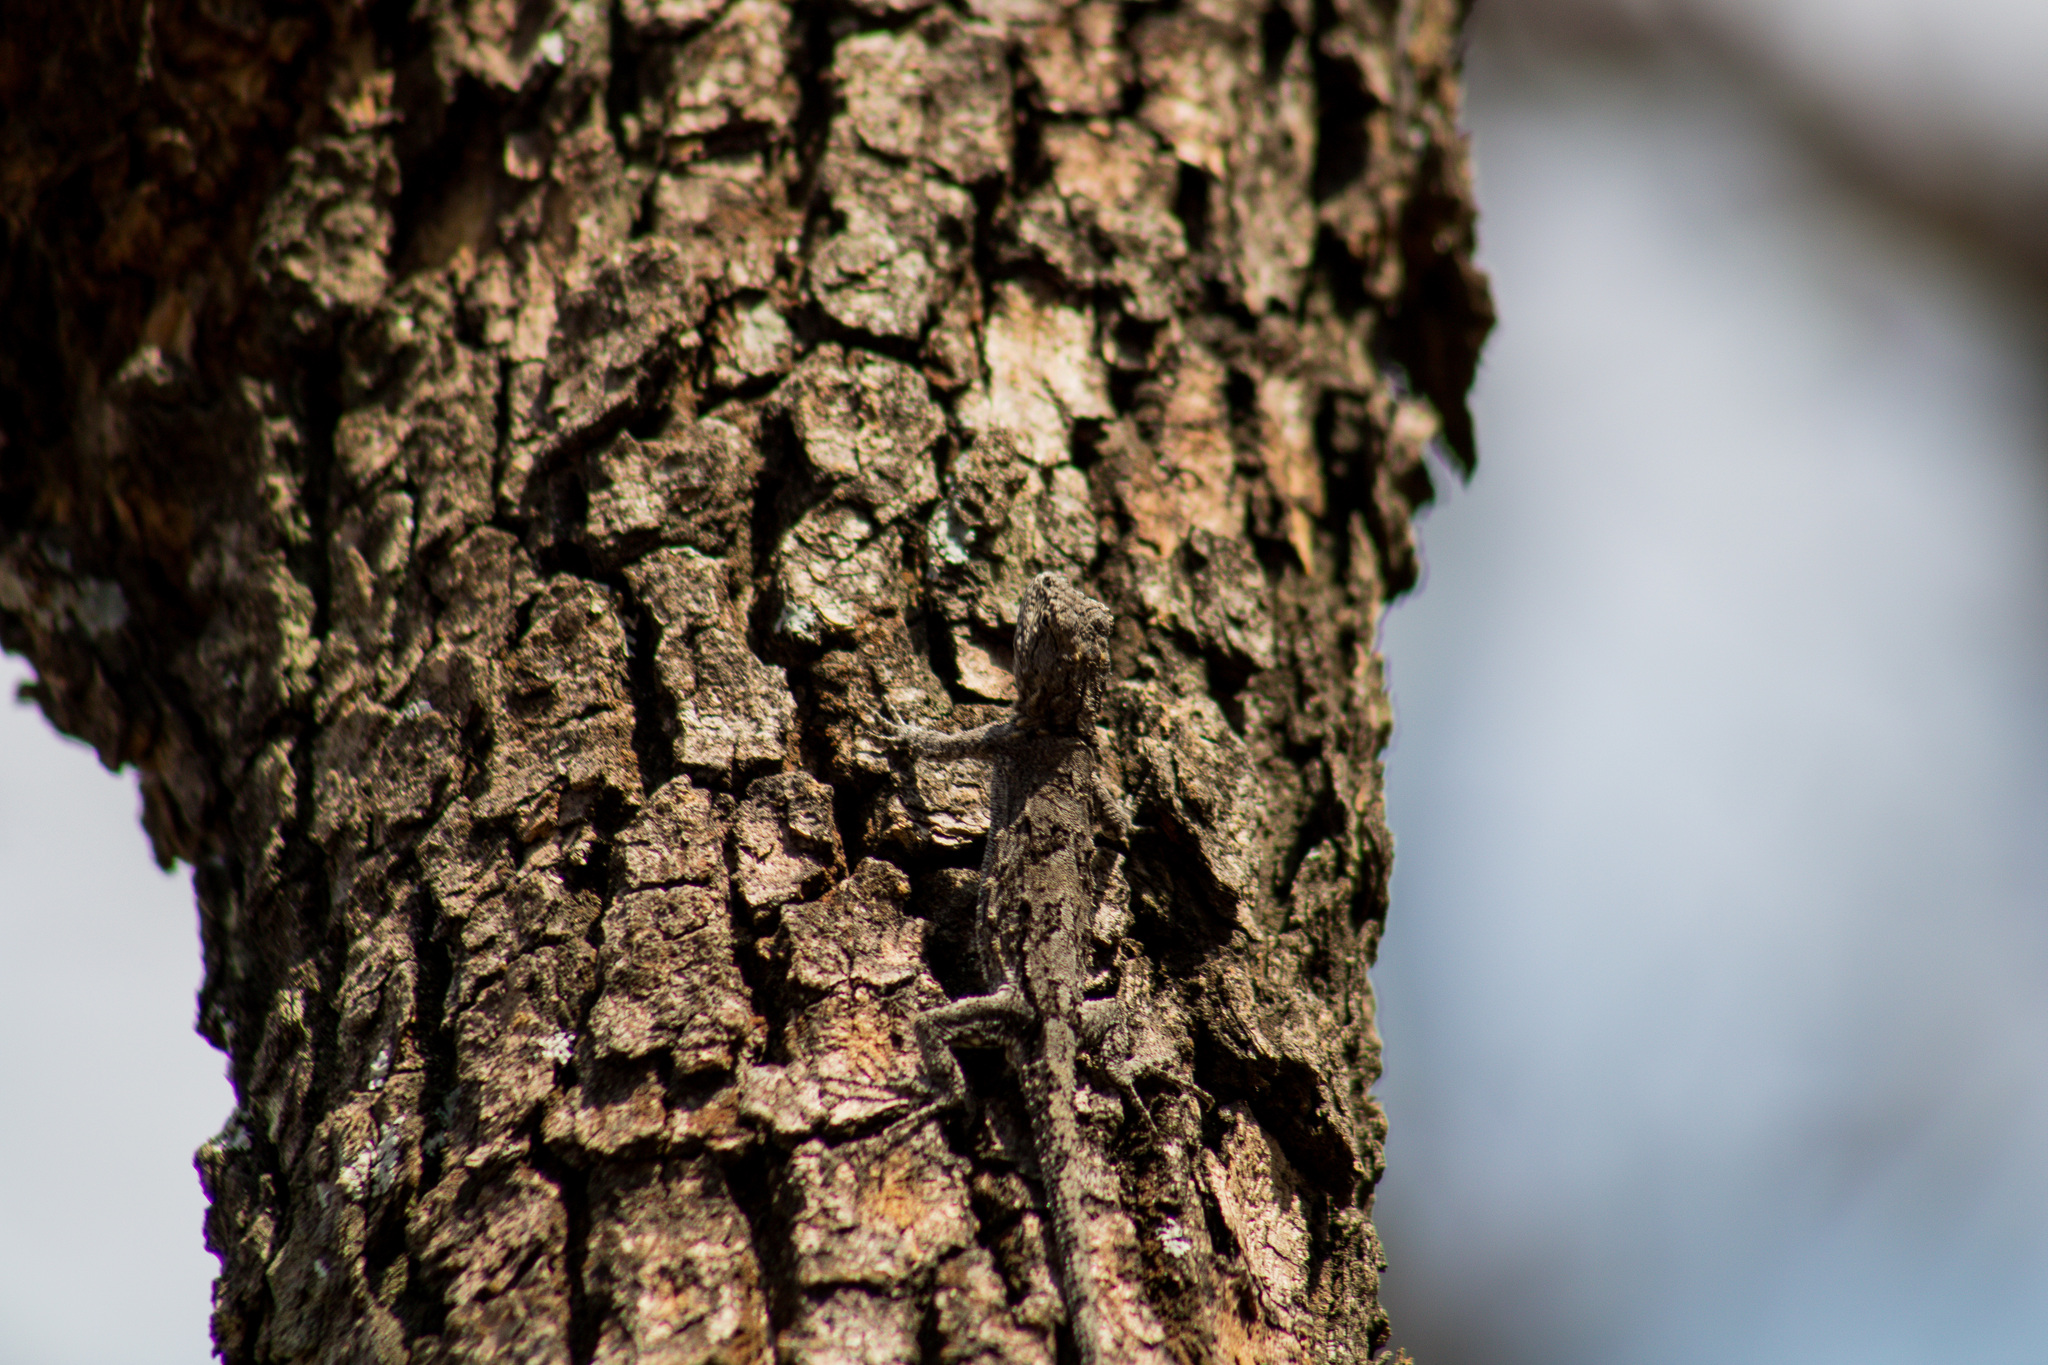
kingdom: Animalia
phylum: Chordata
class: Squamata
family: Phrynosomatidae
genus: Urosaurus
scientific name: Urosaurus bicarinatus
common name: Tropical tree lizard
